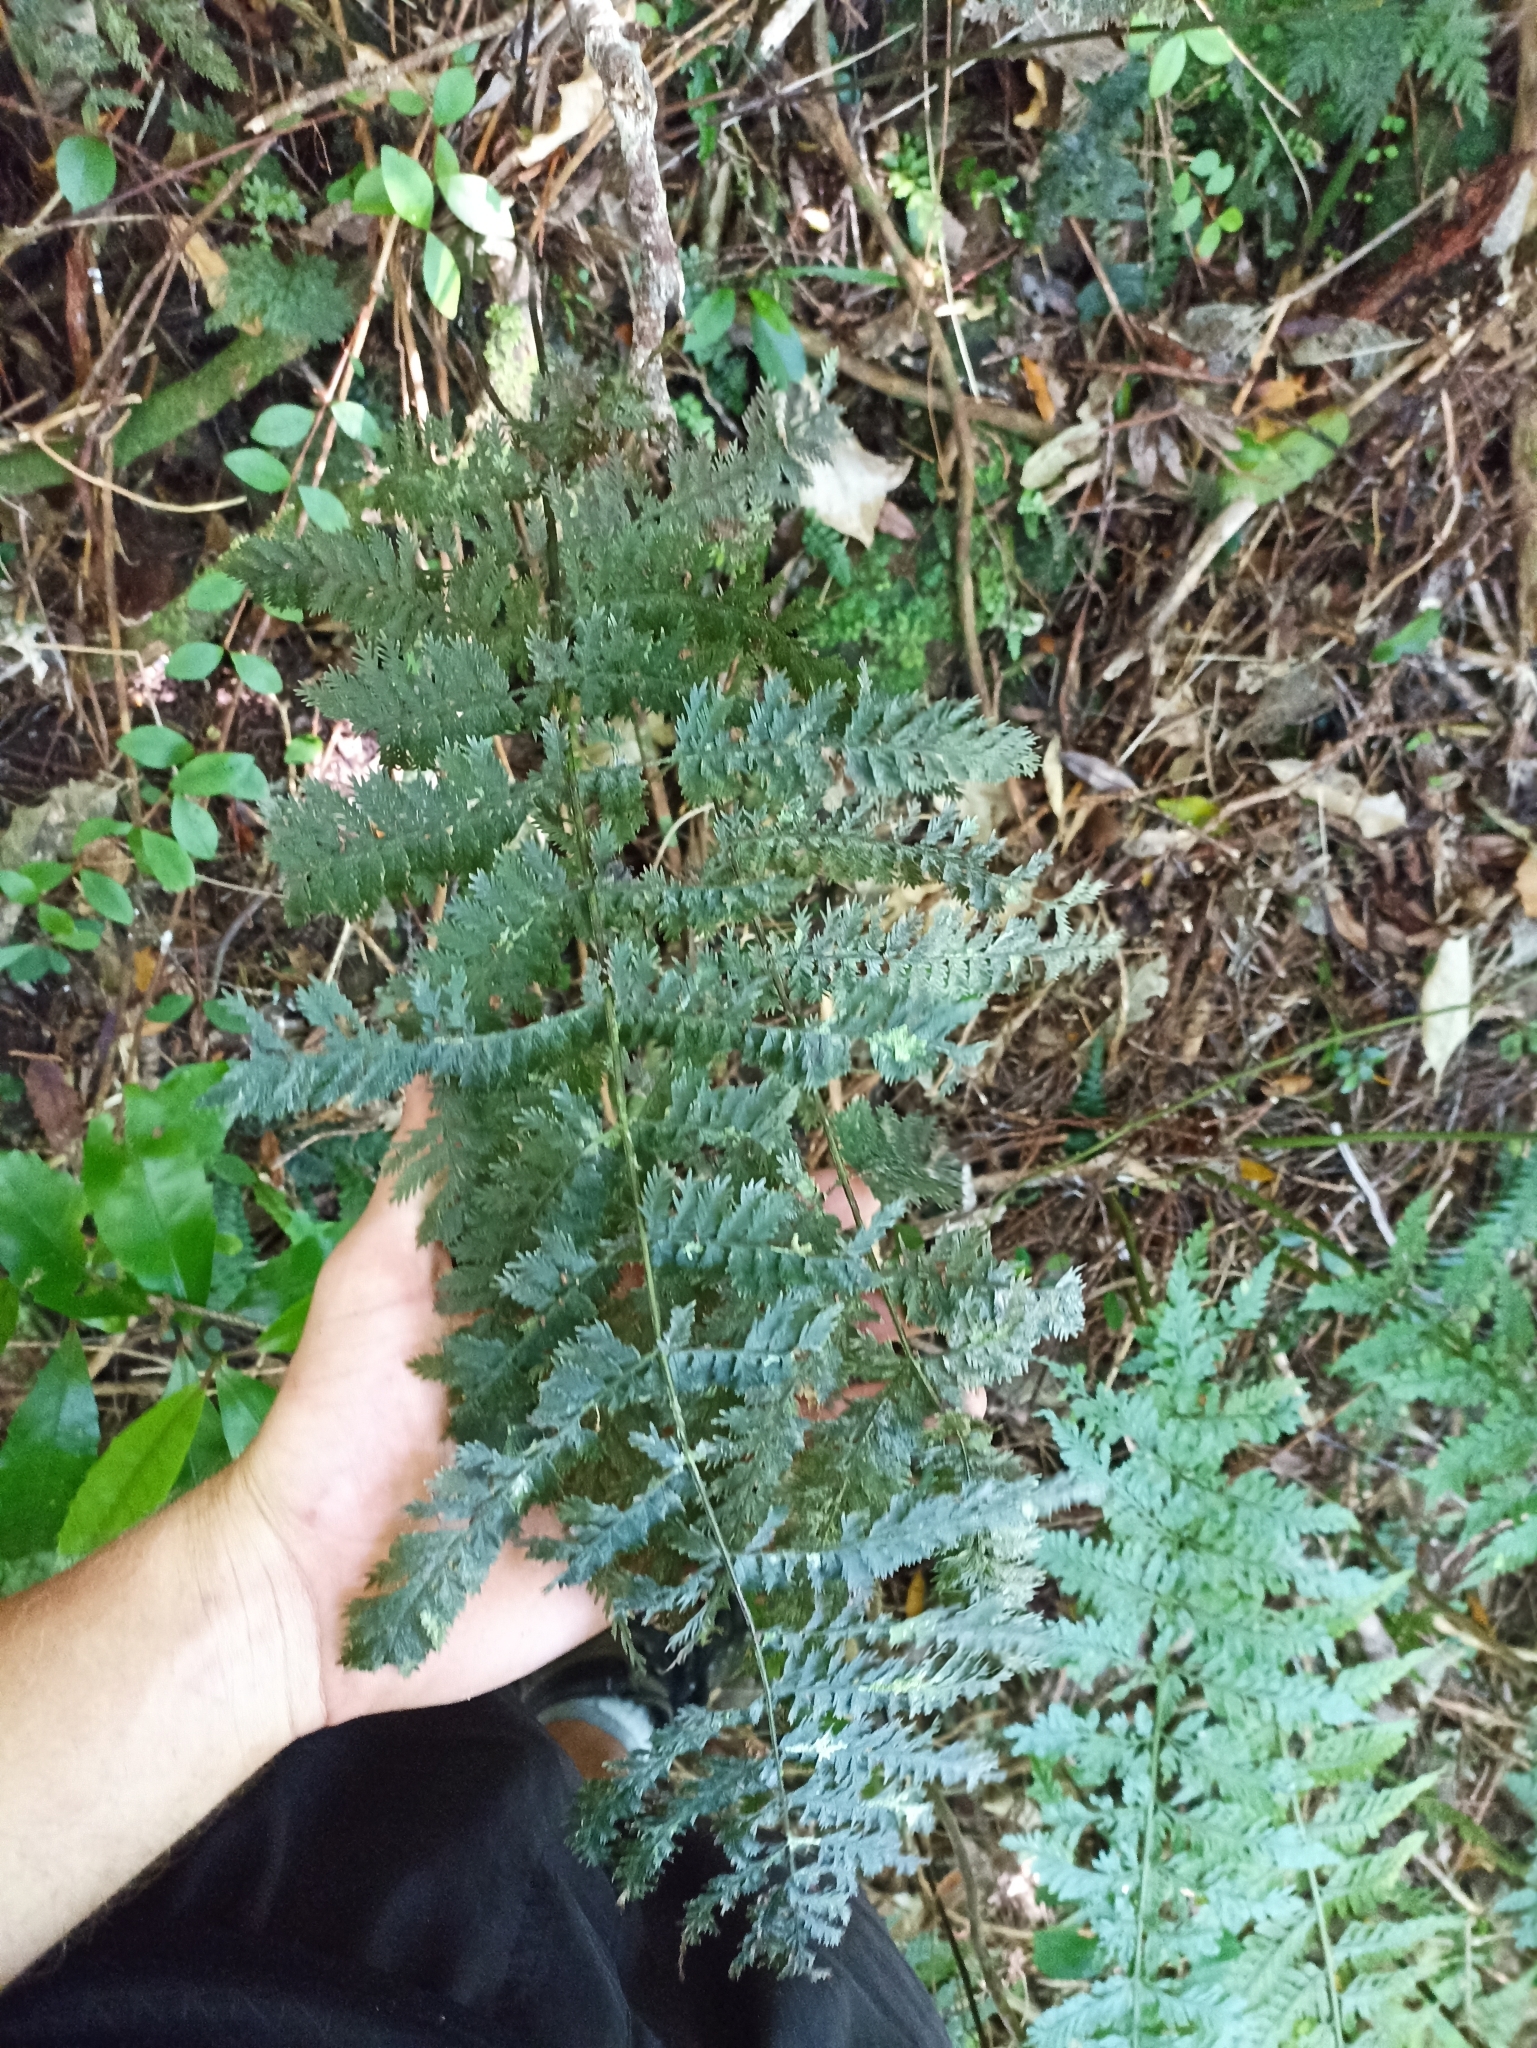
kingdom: Plantae
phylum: Tracheophyta
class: Polypodiopsida
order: Osmundales
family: Osmundaceae
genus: Leptopteris
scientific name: Leptopteris hymenophylloides
